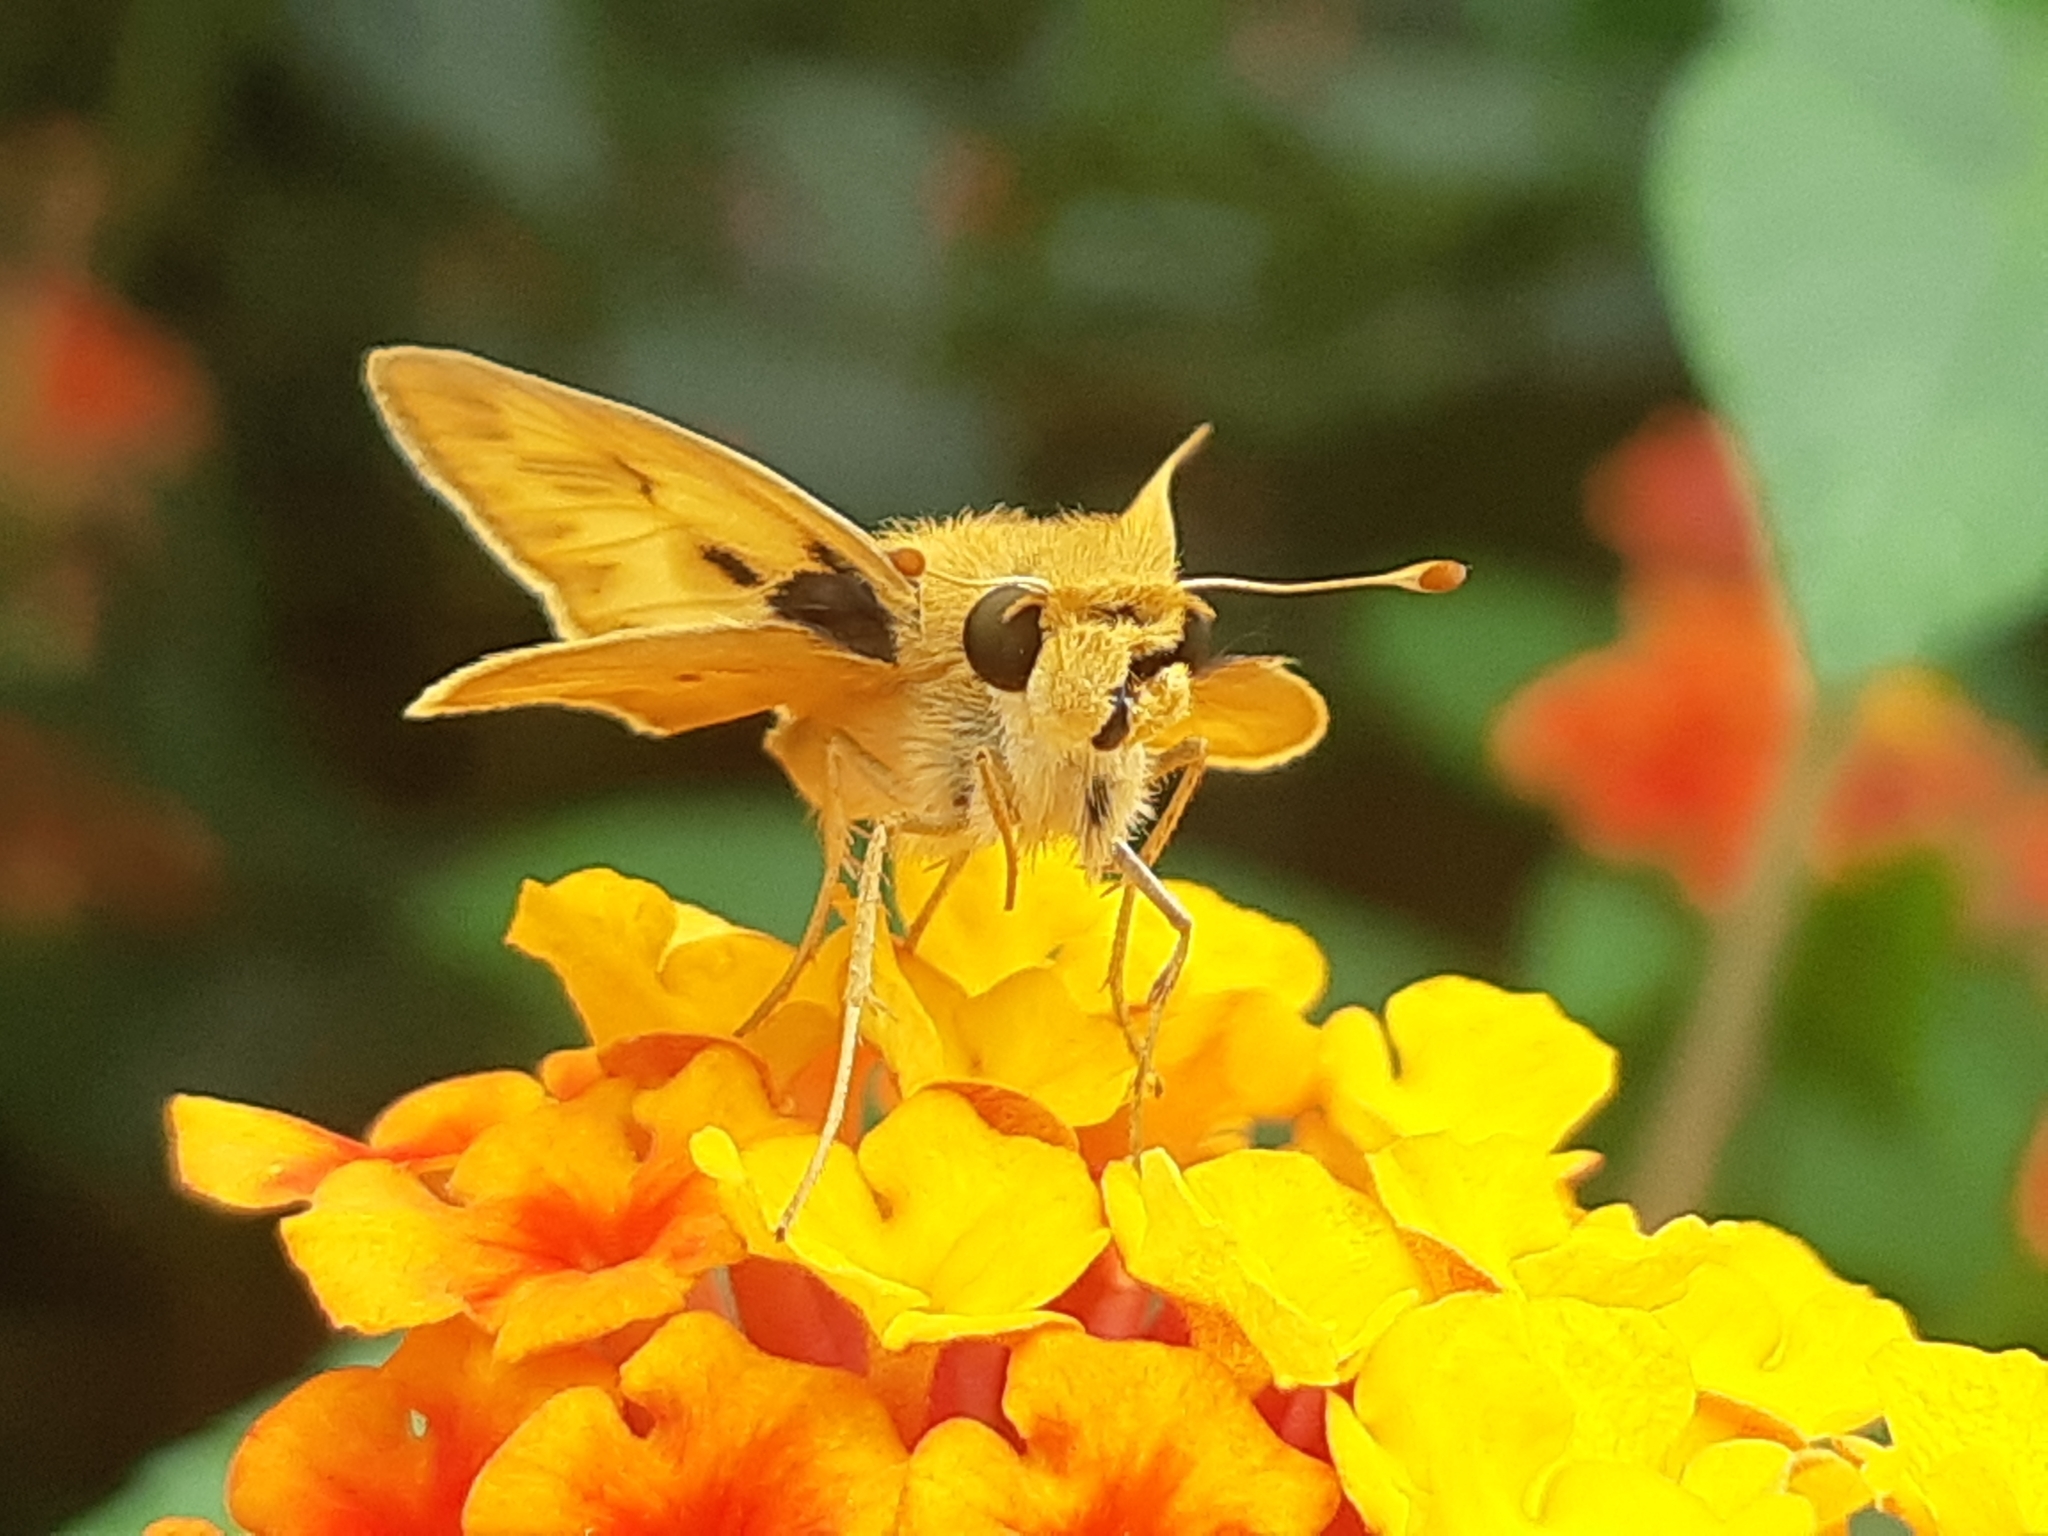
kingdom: Animalia
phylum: Arthropoda
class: Insecta
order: Lepidoptera
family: Hesperiidae
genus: Hylephila
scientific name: Hylephila phyleus
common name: Fiery skipper
